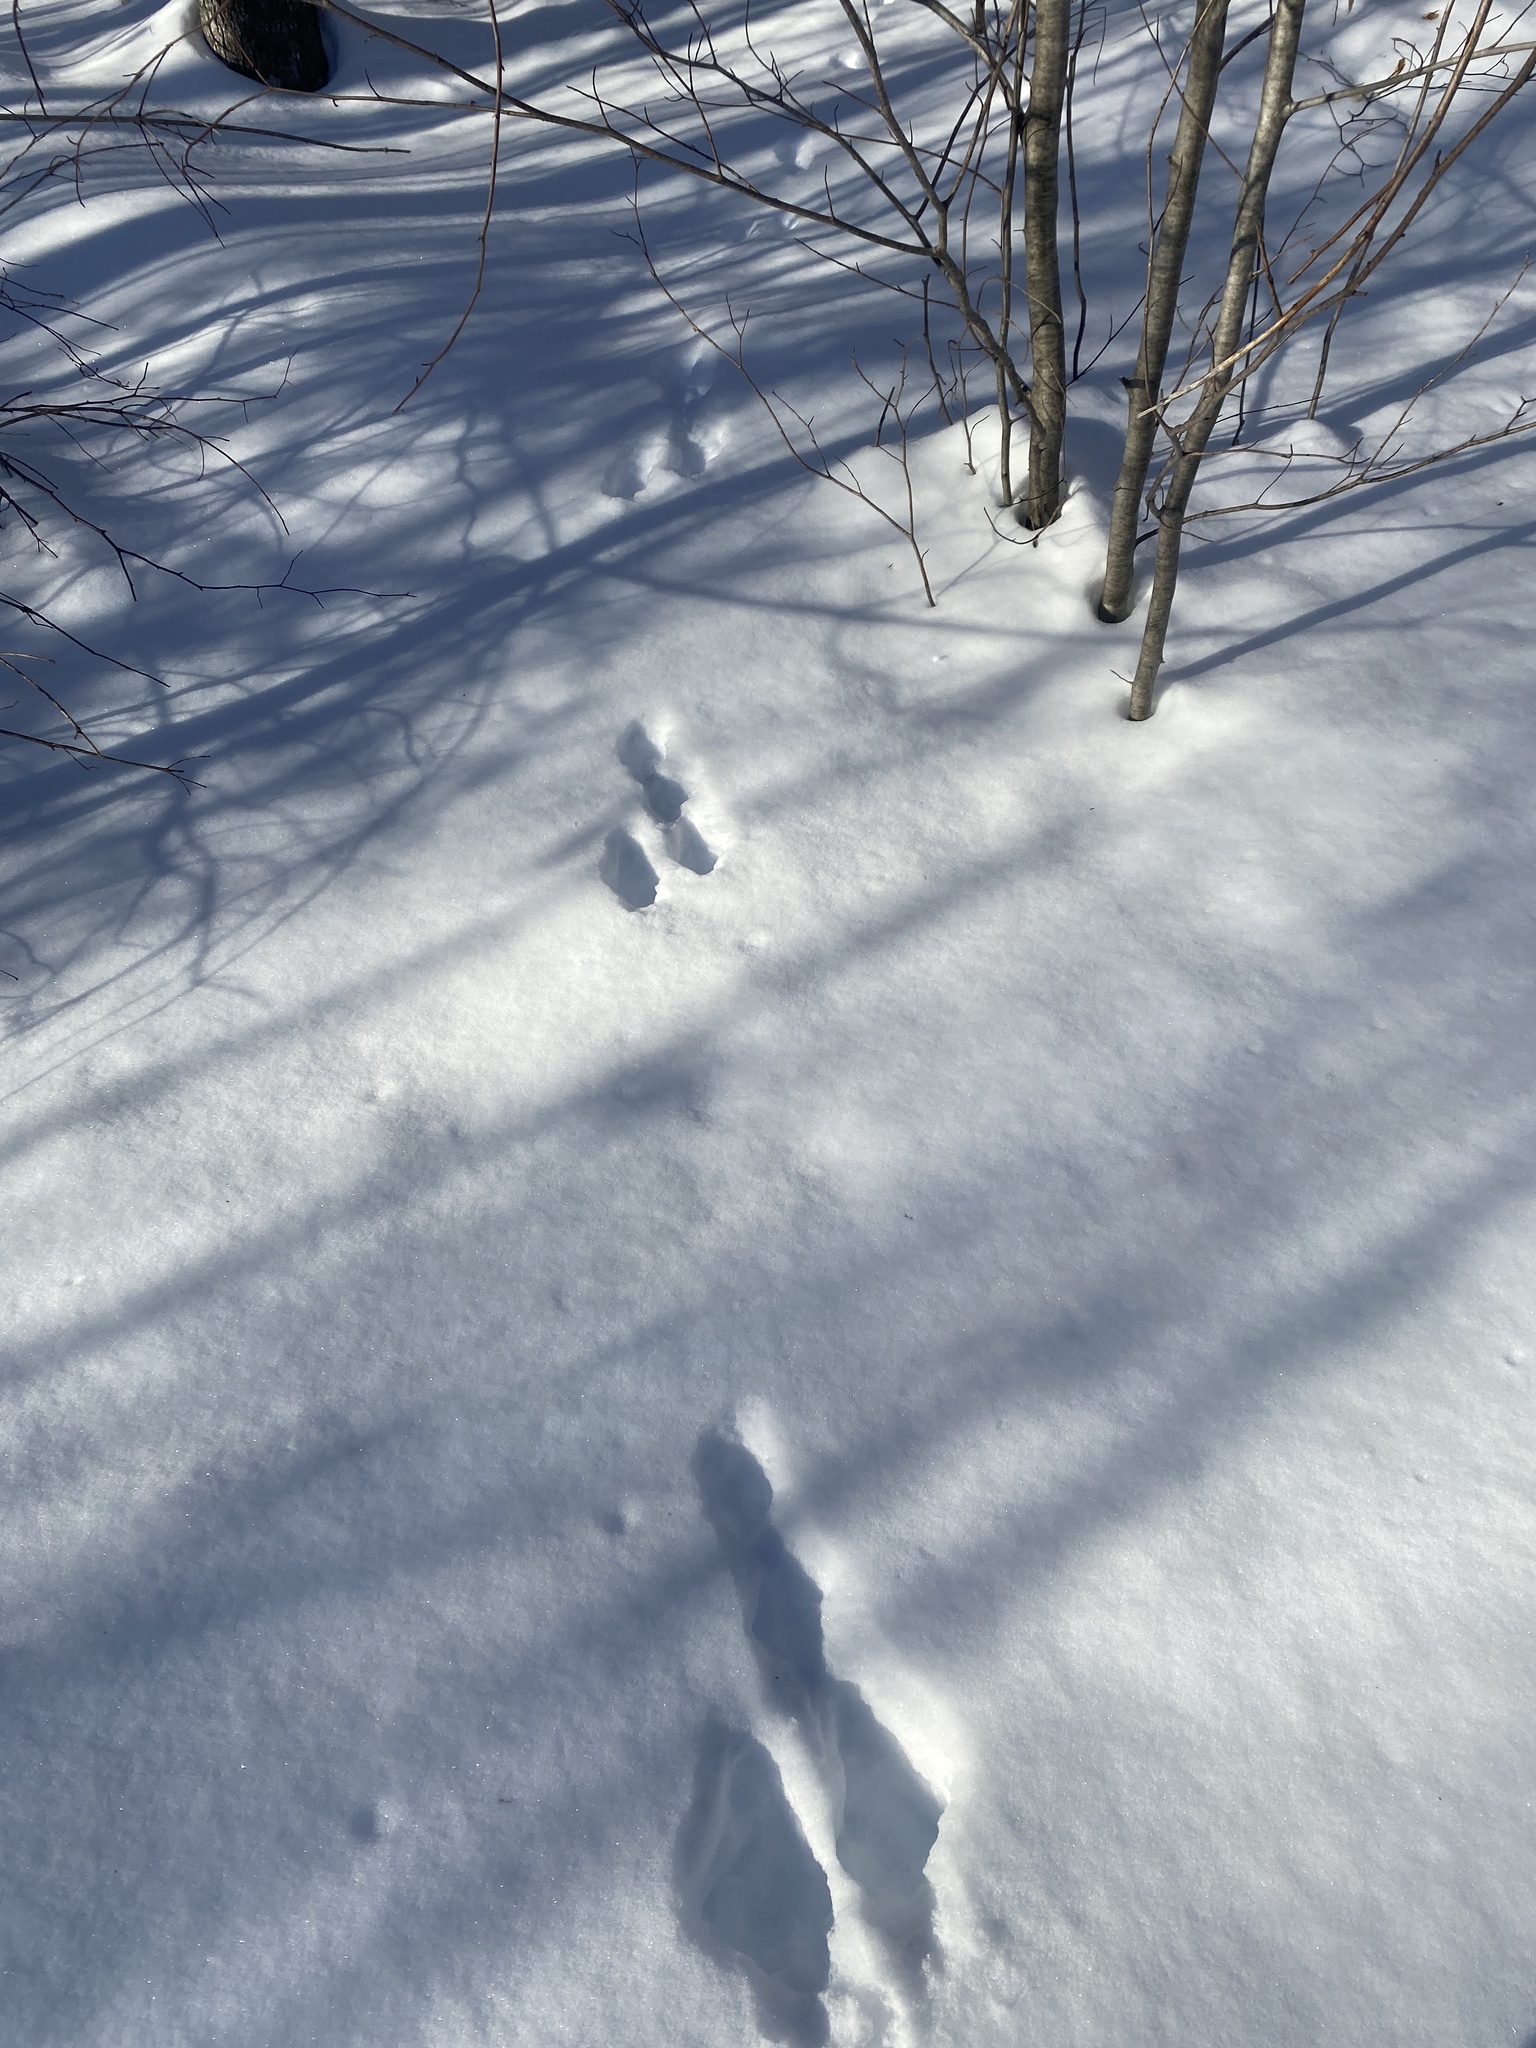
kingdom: Animalia
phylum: Chordata
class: Mammalia
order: Lagomorpha
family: Leporidae
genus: Lepus
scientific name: Lepus americanus
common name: Snowshoe hare
